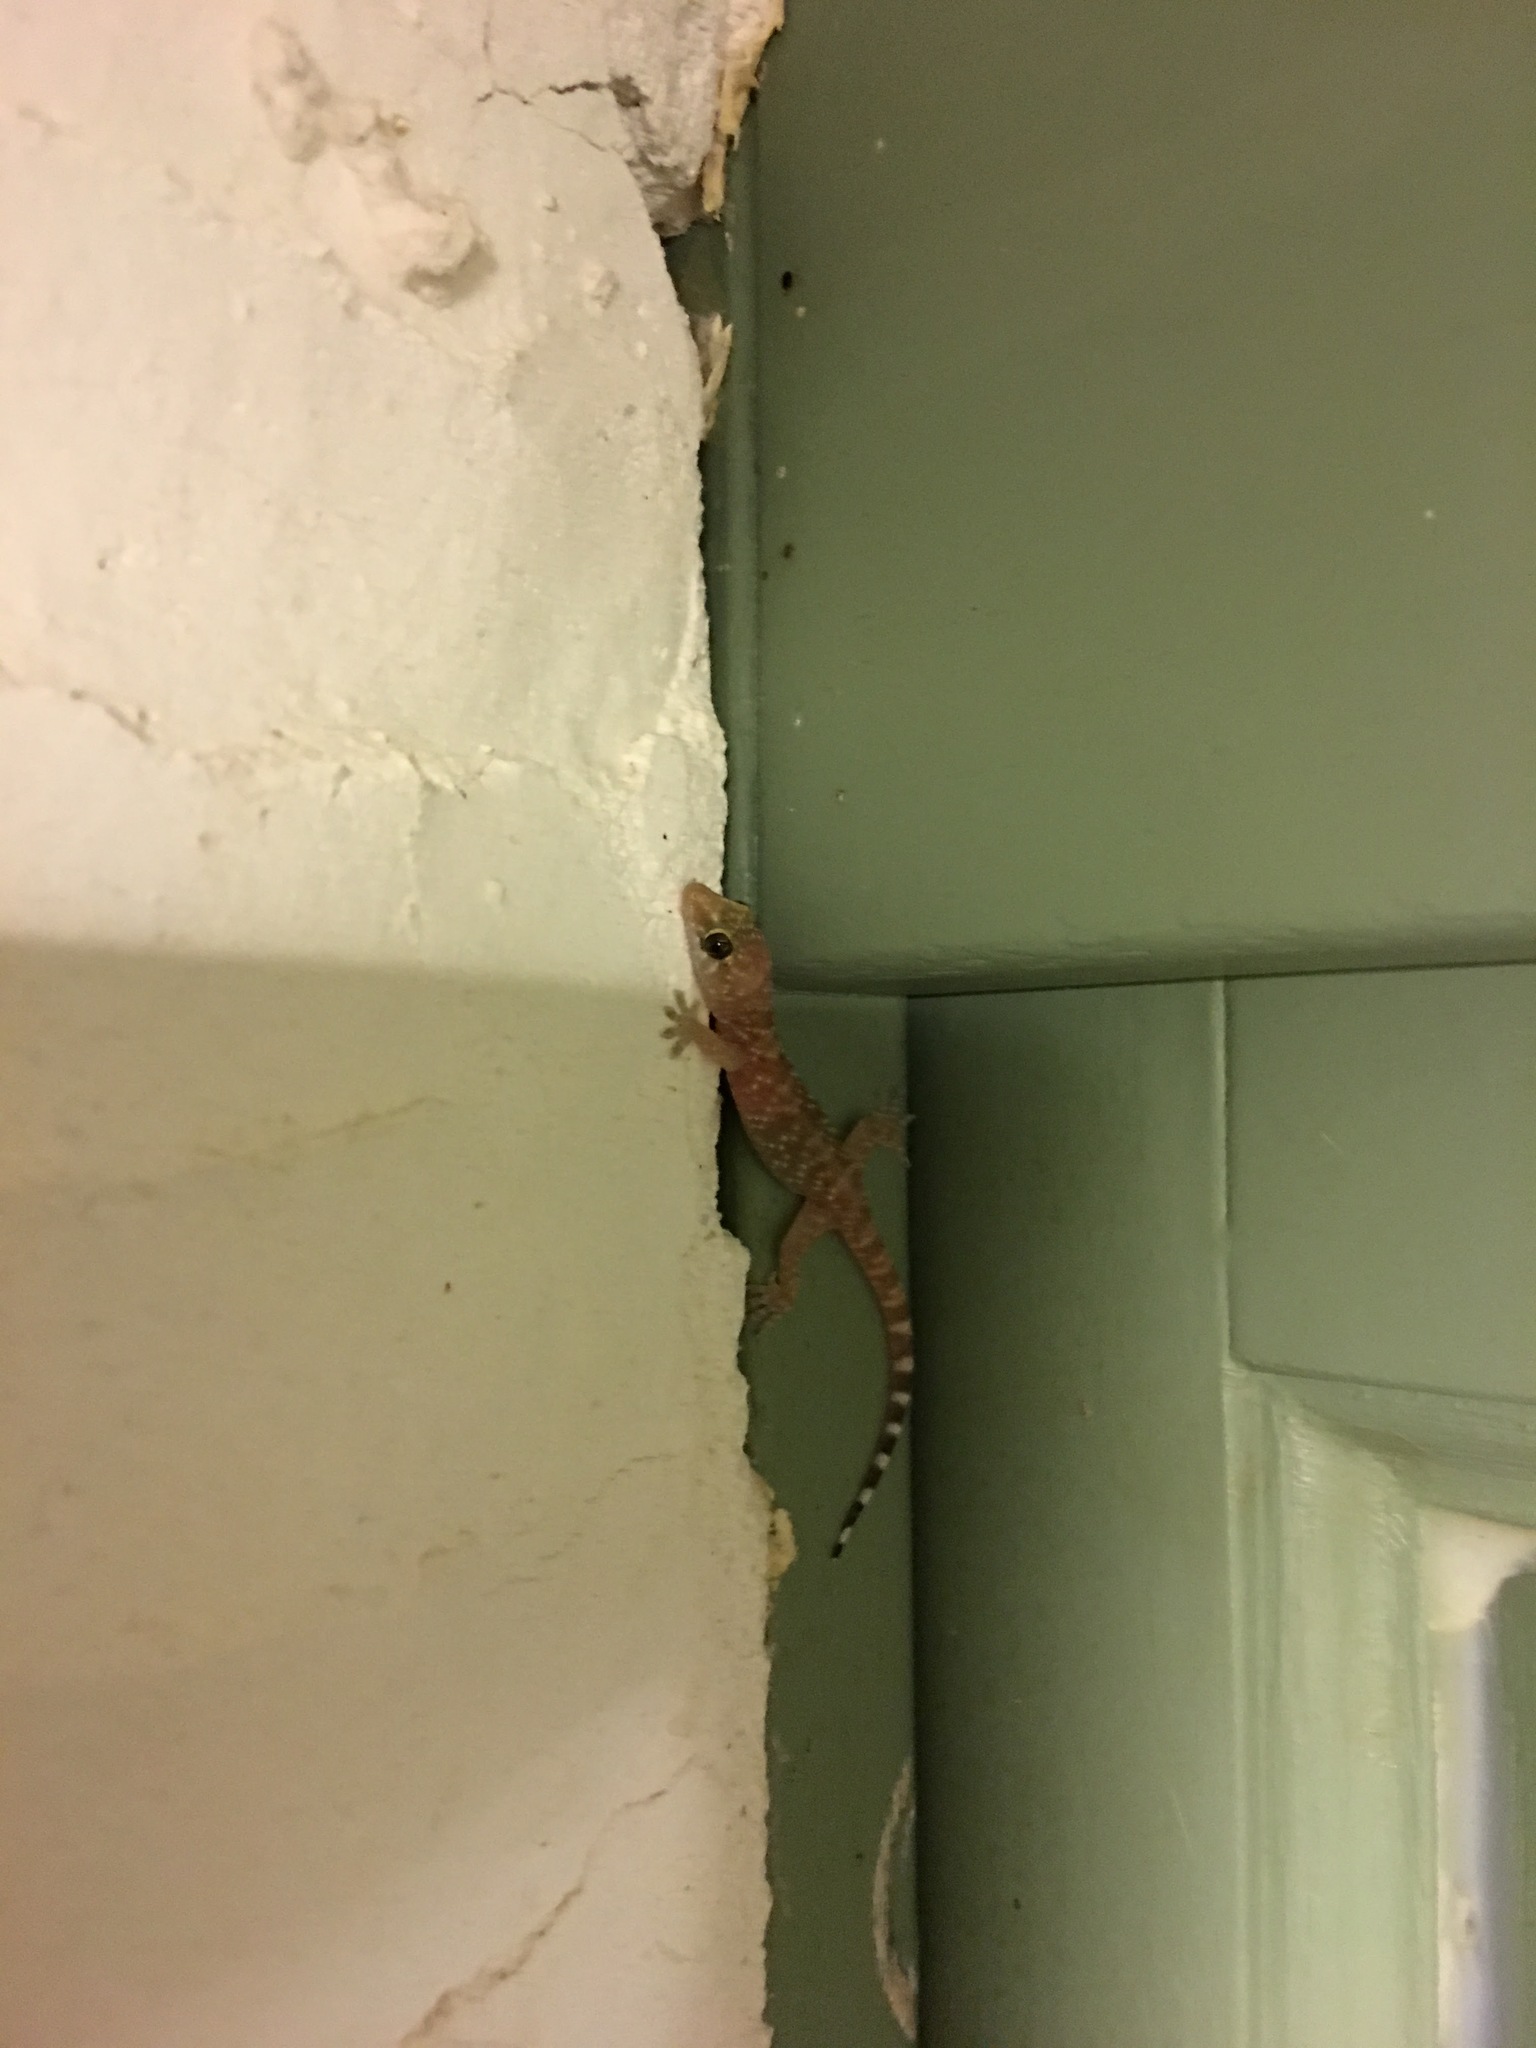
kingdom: Animalia
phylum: Chordata
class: Squamata
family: Gekkonidae
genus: Hemidactylus
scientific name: Hemidactylus turcicus
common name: Turkish gecko
